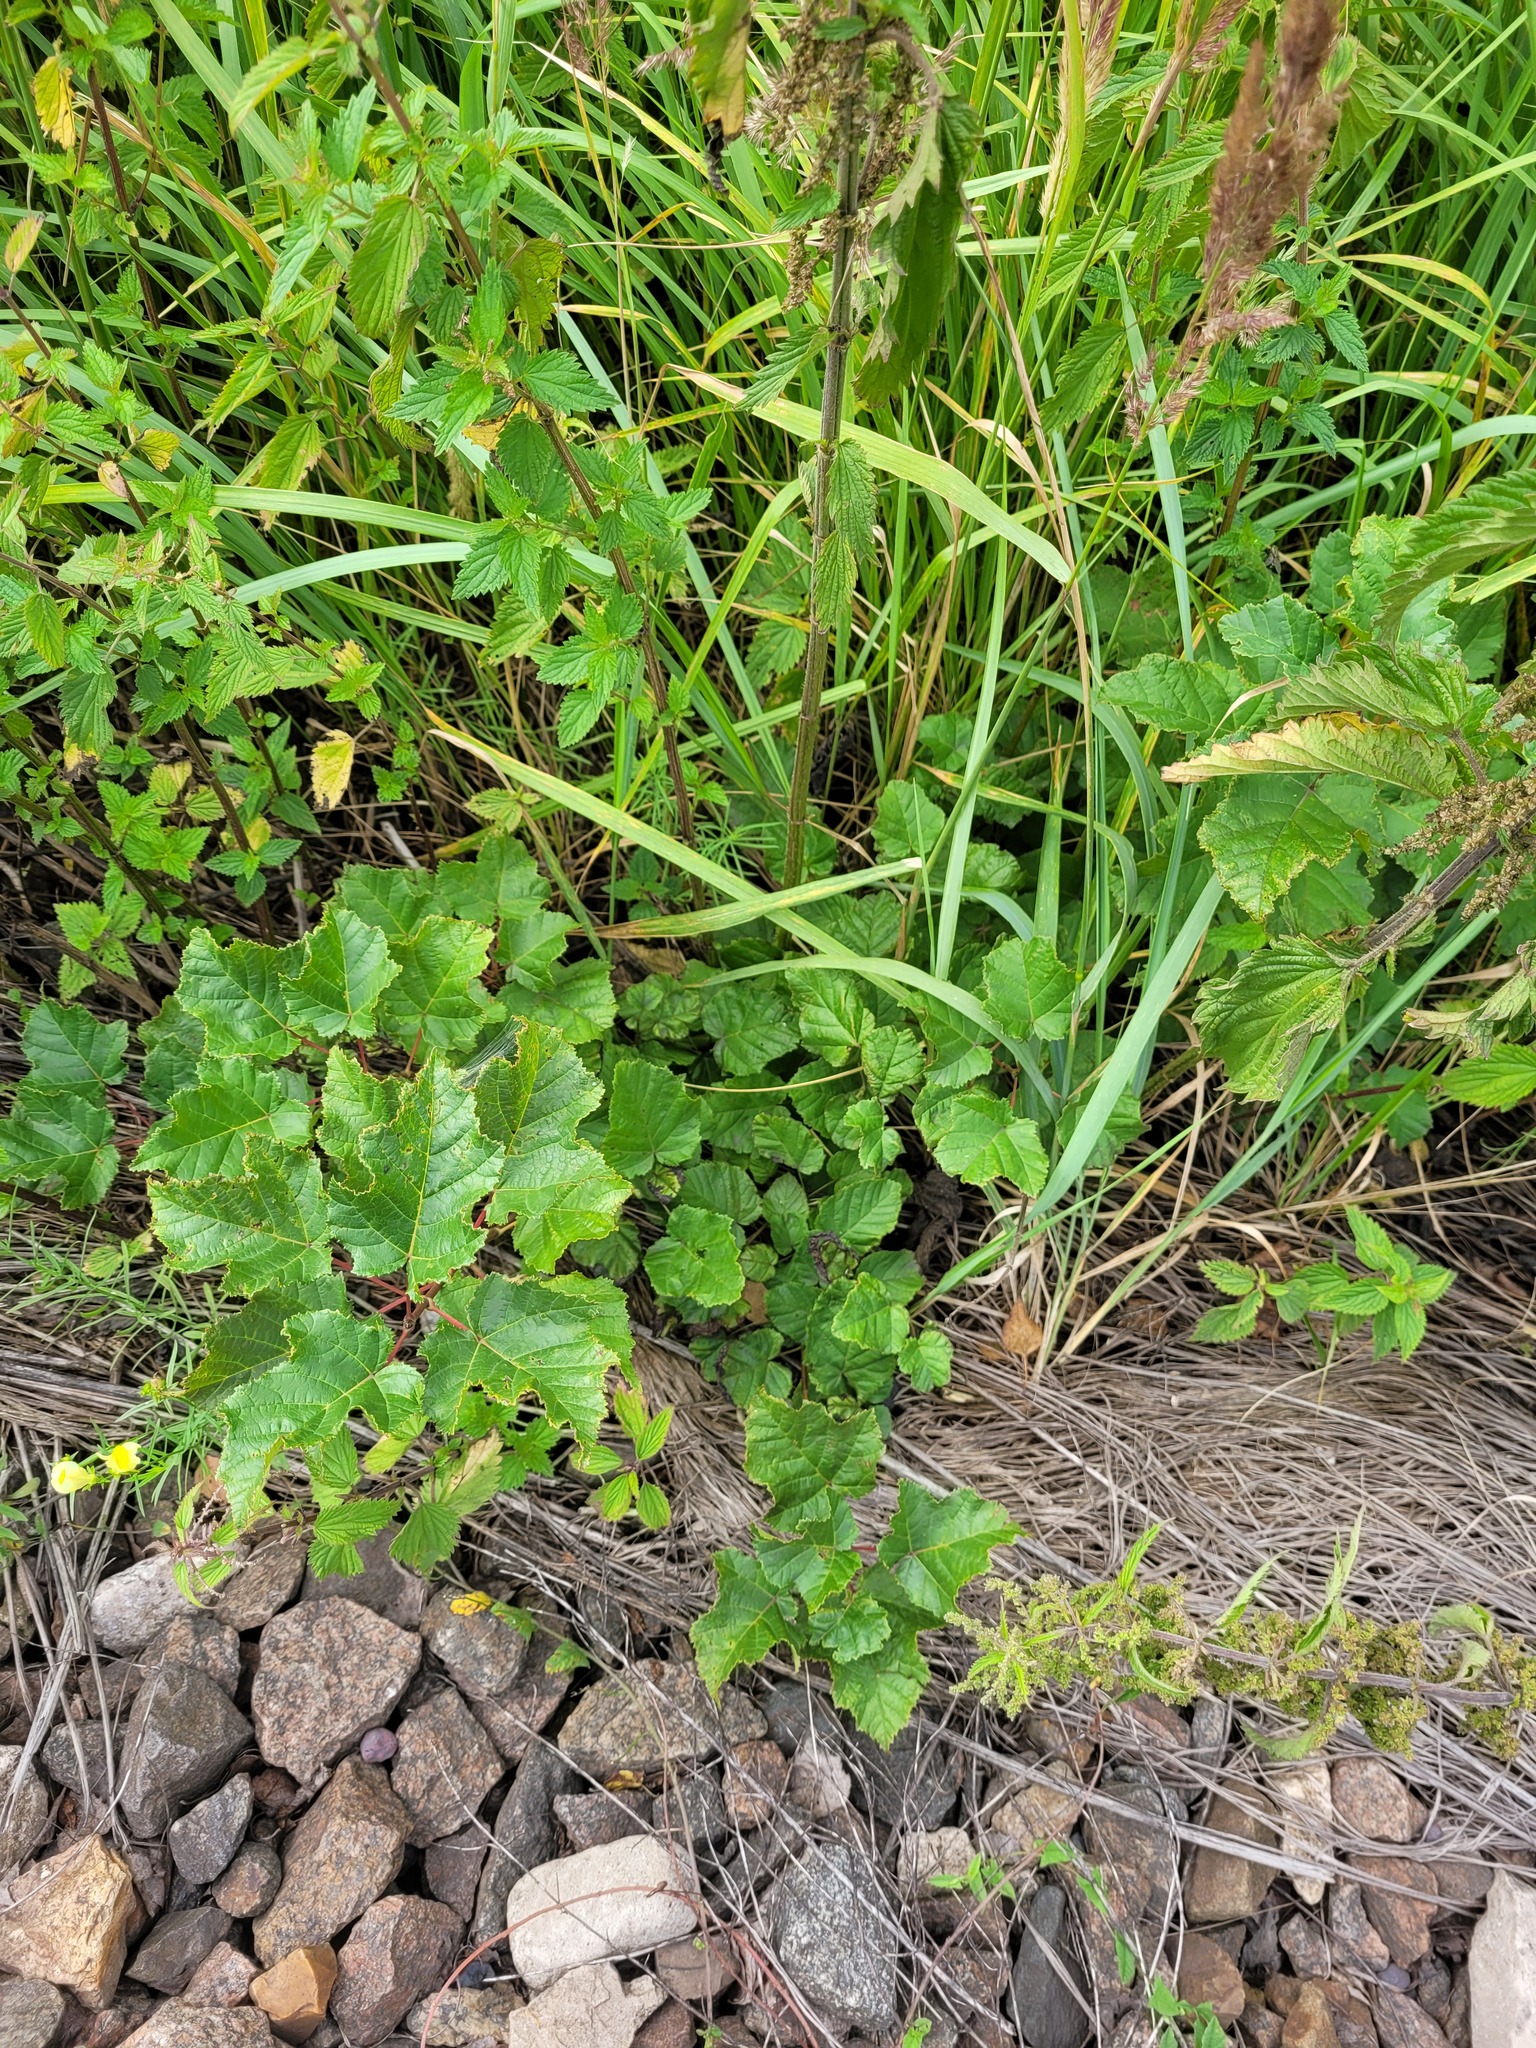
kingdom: Plantae
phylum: Tracheophyta
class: Magnoliopsida
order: Sapindales
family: Sapindaceae
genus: Acer
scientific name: Acer tataricum
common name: Tartar maple
